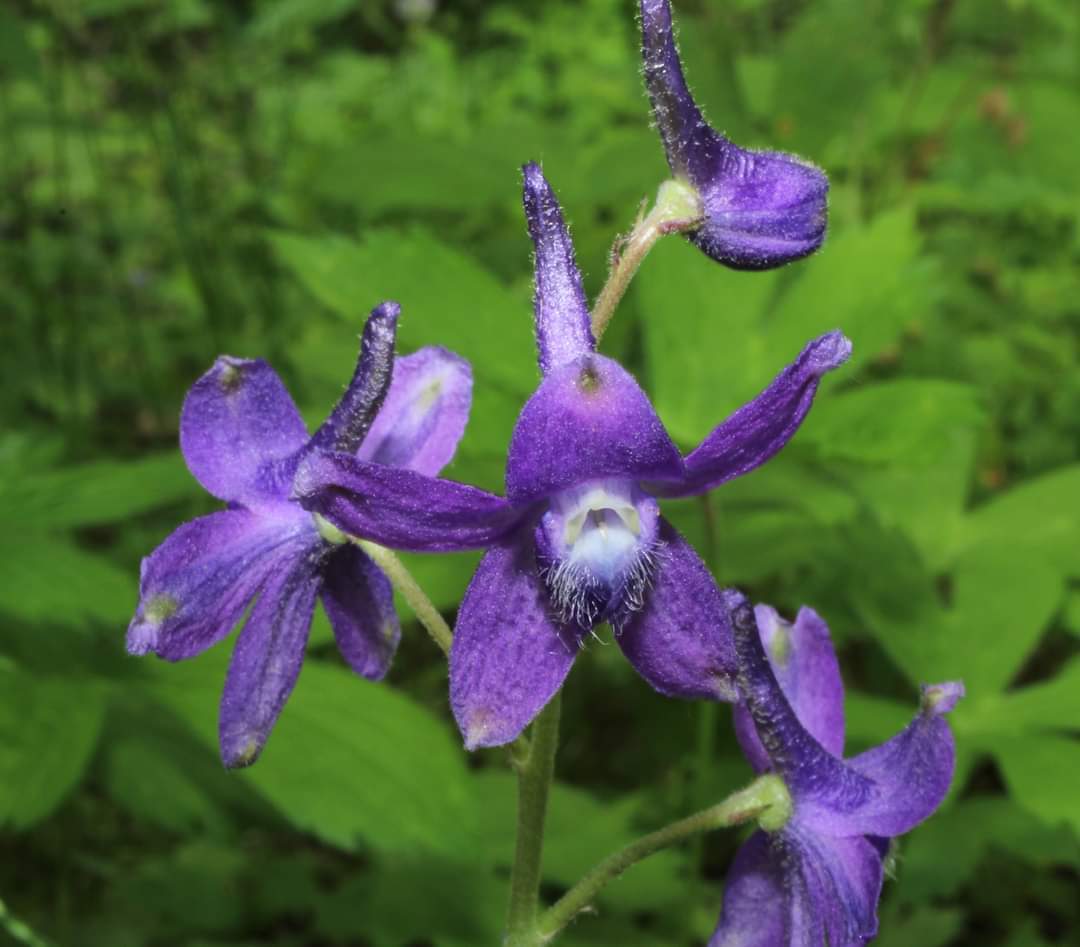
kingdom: Plantae
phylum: Tracheophyta
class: Magnoliopsida
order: Ranunculales
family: Ranunculaceae
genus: Delphinium
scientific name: Delphinium tricorne
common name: Dwarf larkspur
